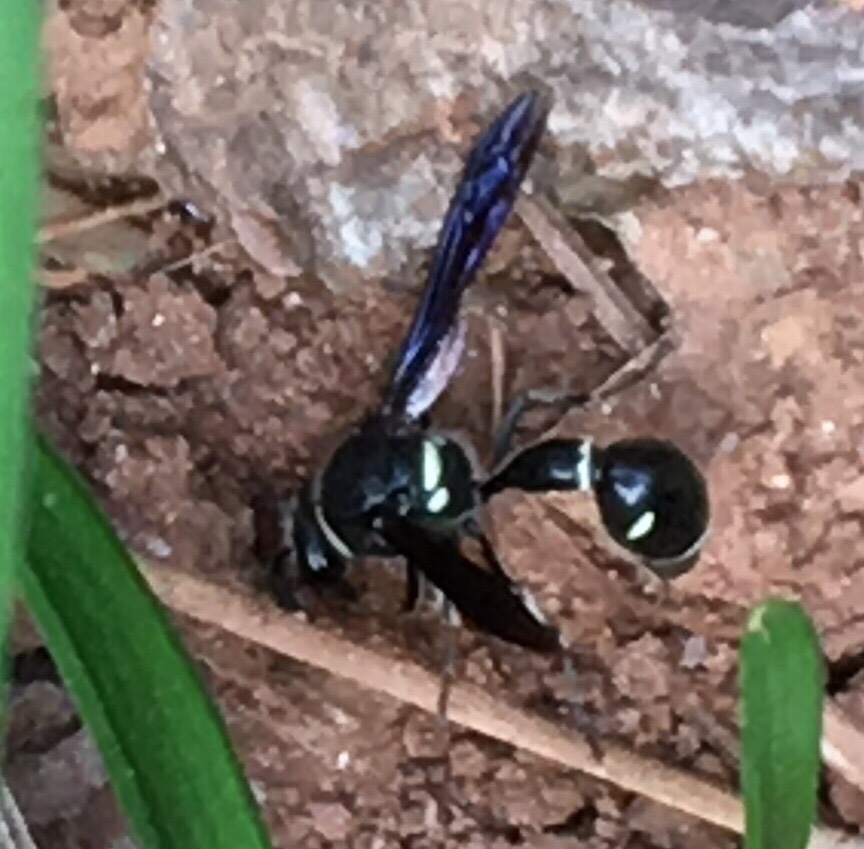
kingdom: Animalia
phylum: Arthropoda
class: Insecta
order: Hymenoptera
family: Vespidae
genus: Eumenes
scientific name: Eumenes fraternus
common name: Fraternal potter wasp
